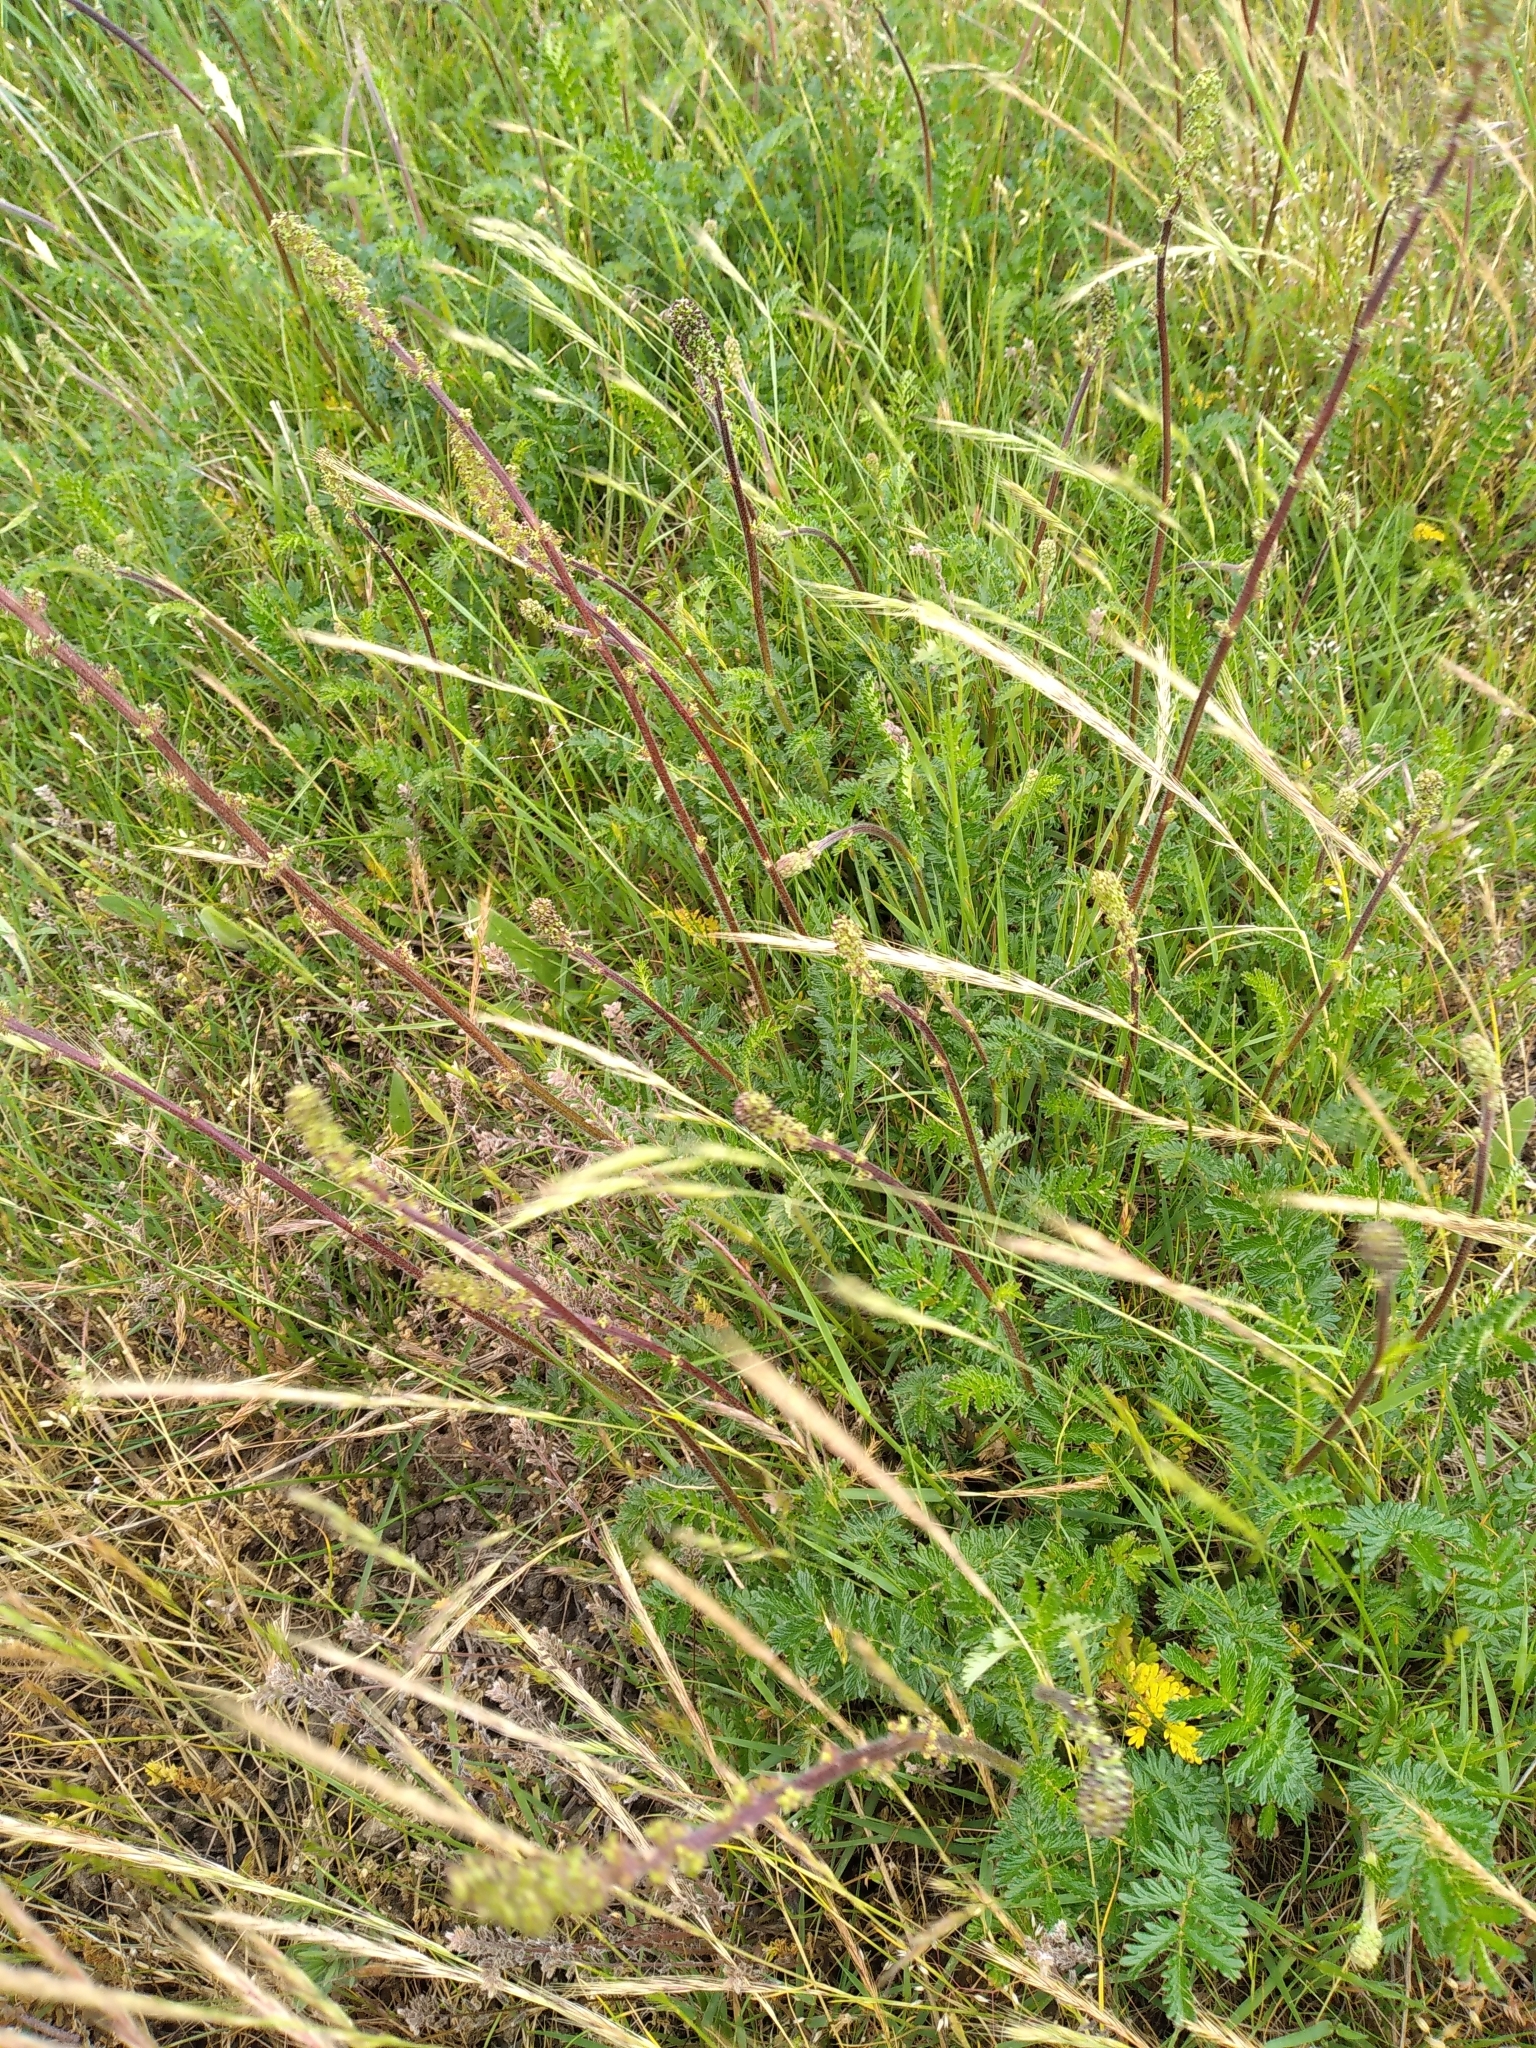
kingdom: Plantae
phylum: Tracheophyta
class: Magnoliopsida
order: Rosales
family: Rosaceae
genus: Acaena
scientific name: Acaena agnipila
